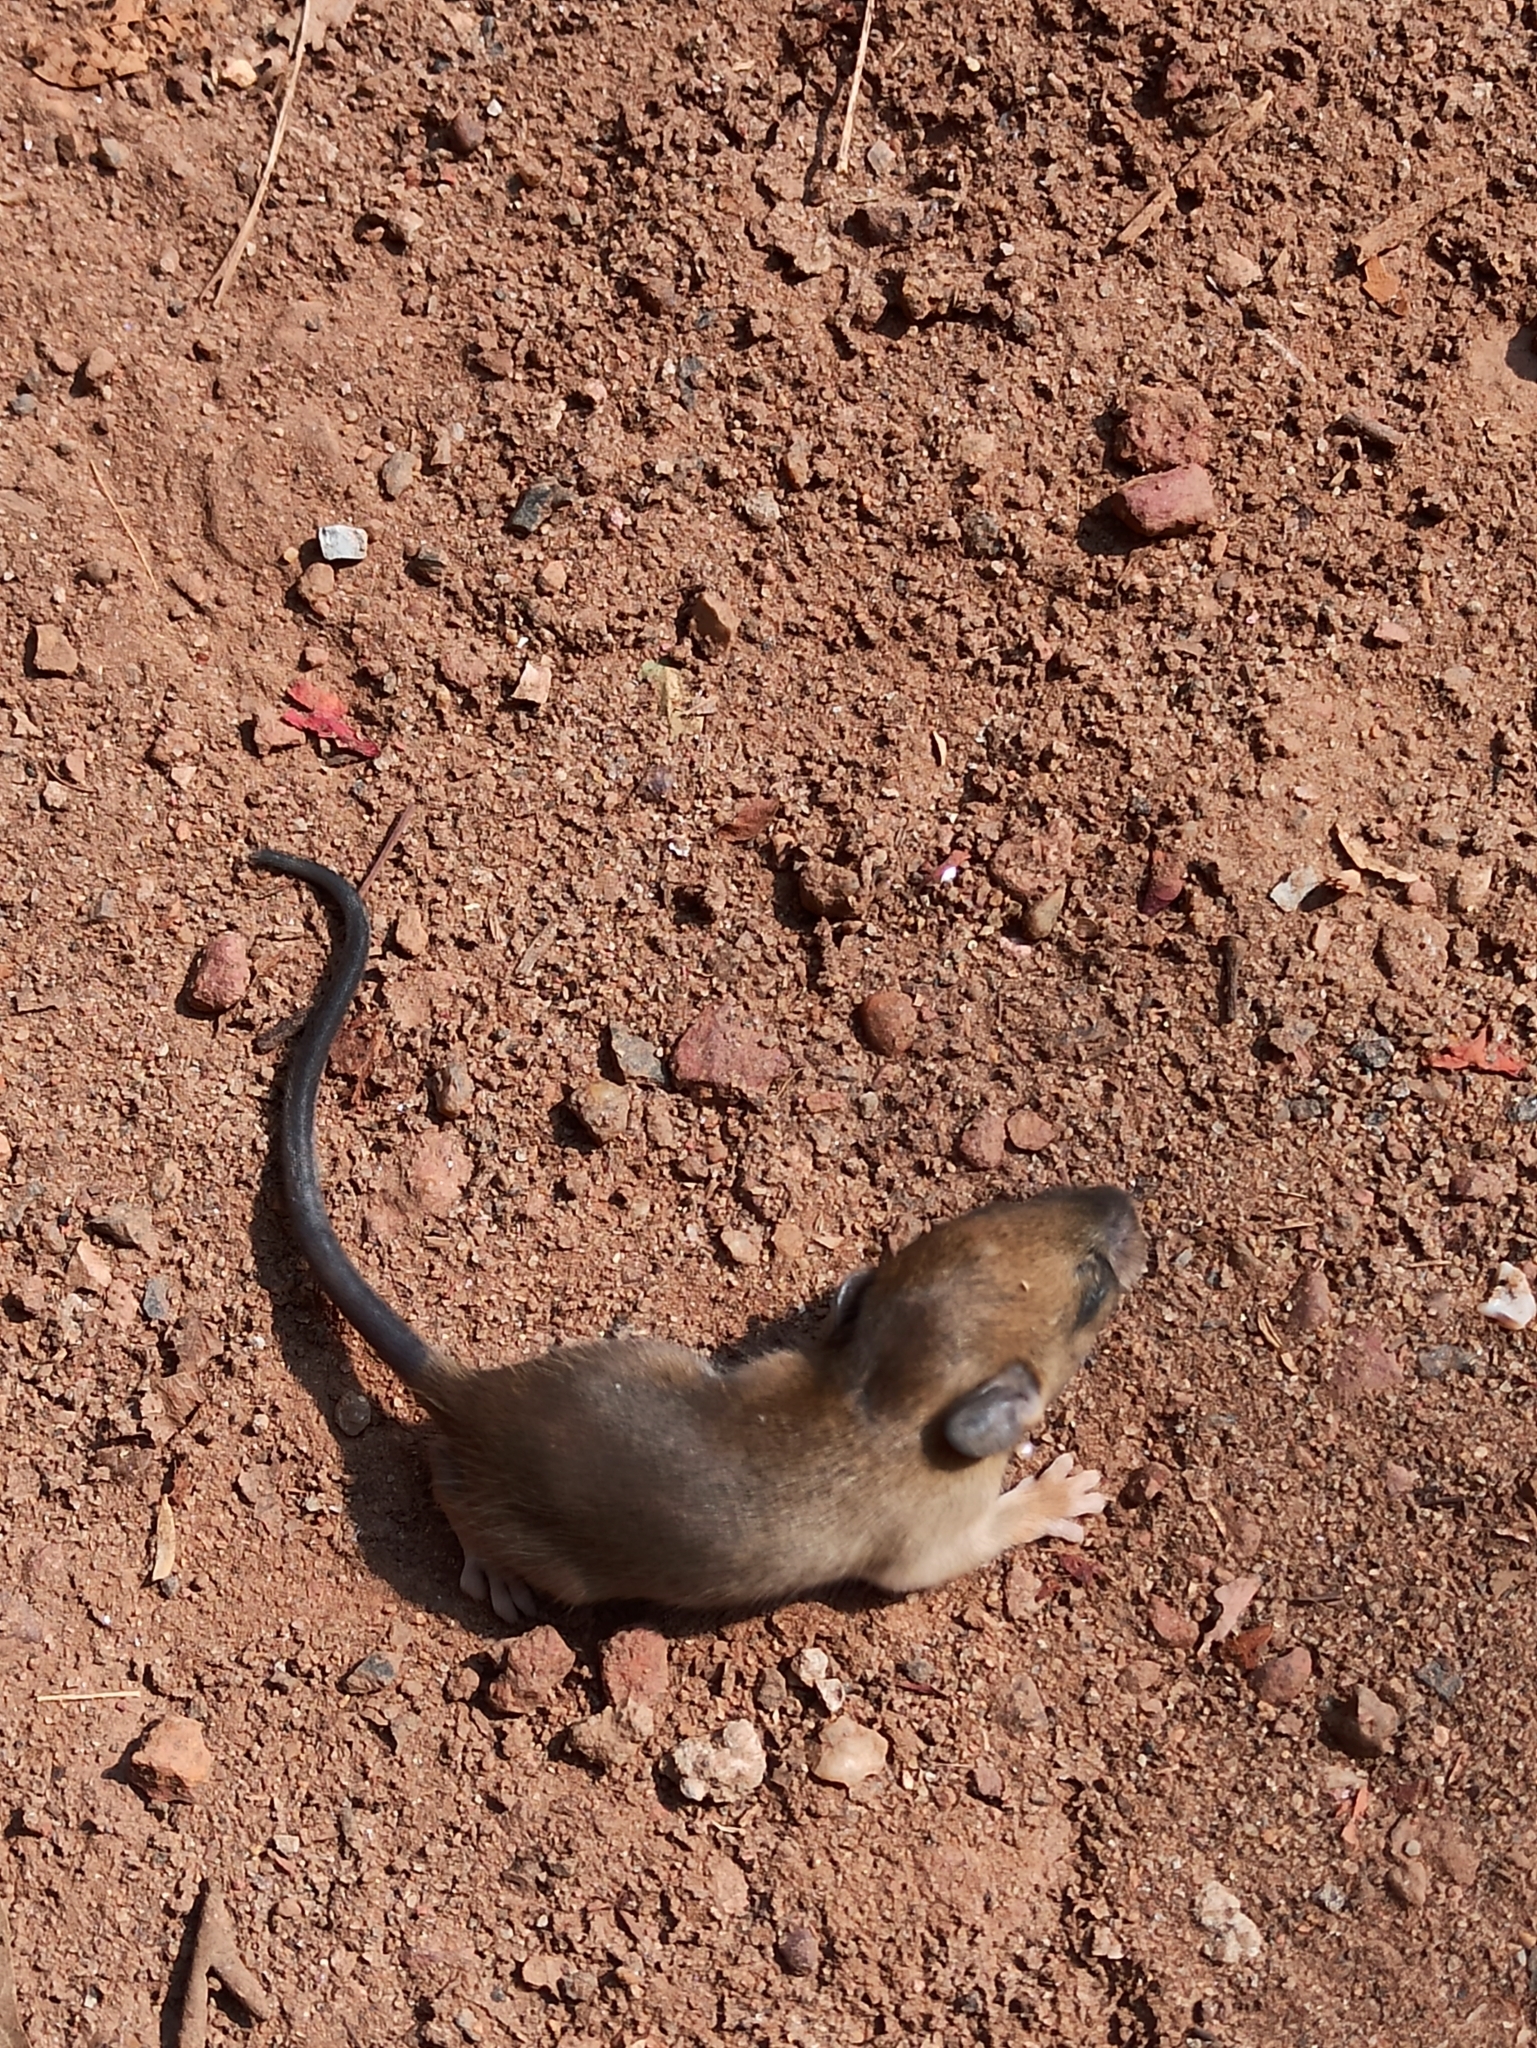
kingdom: Animalia
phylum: Chordata
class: Mammalia
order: Rodentia
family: Muridae
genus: Rattus
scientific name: Rattus rattus
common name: Black rat
